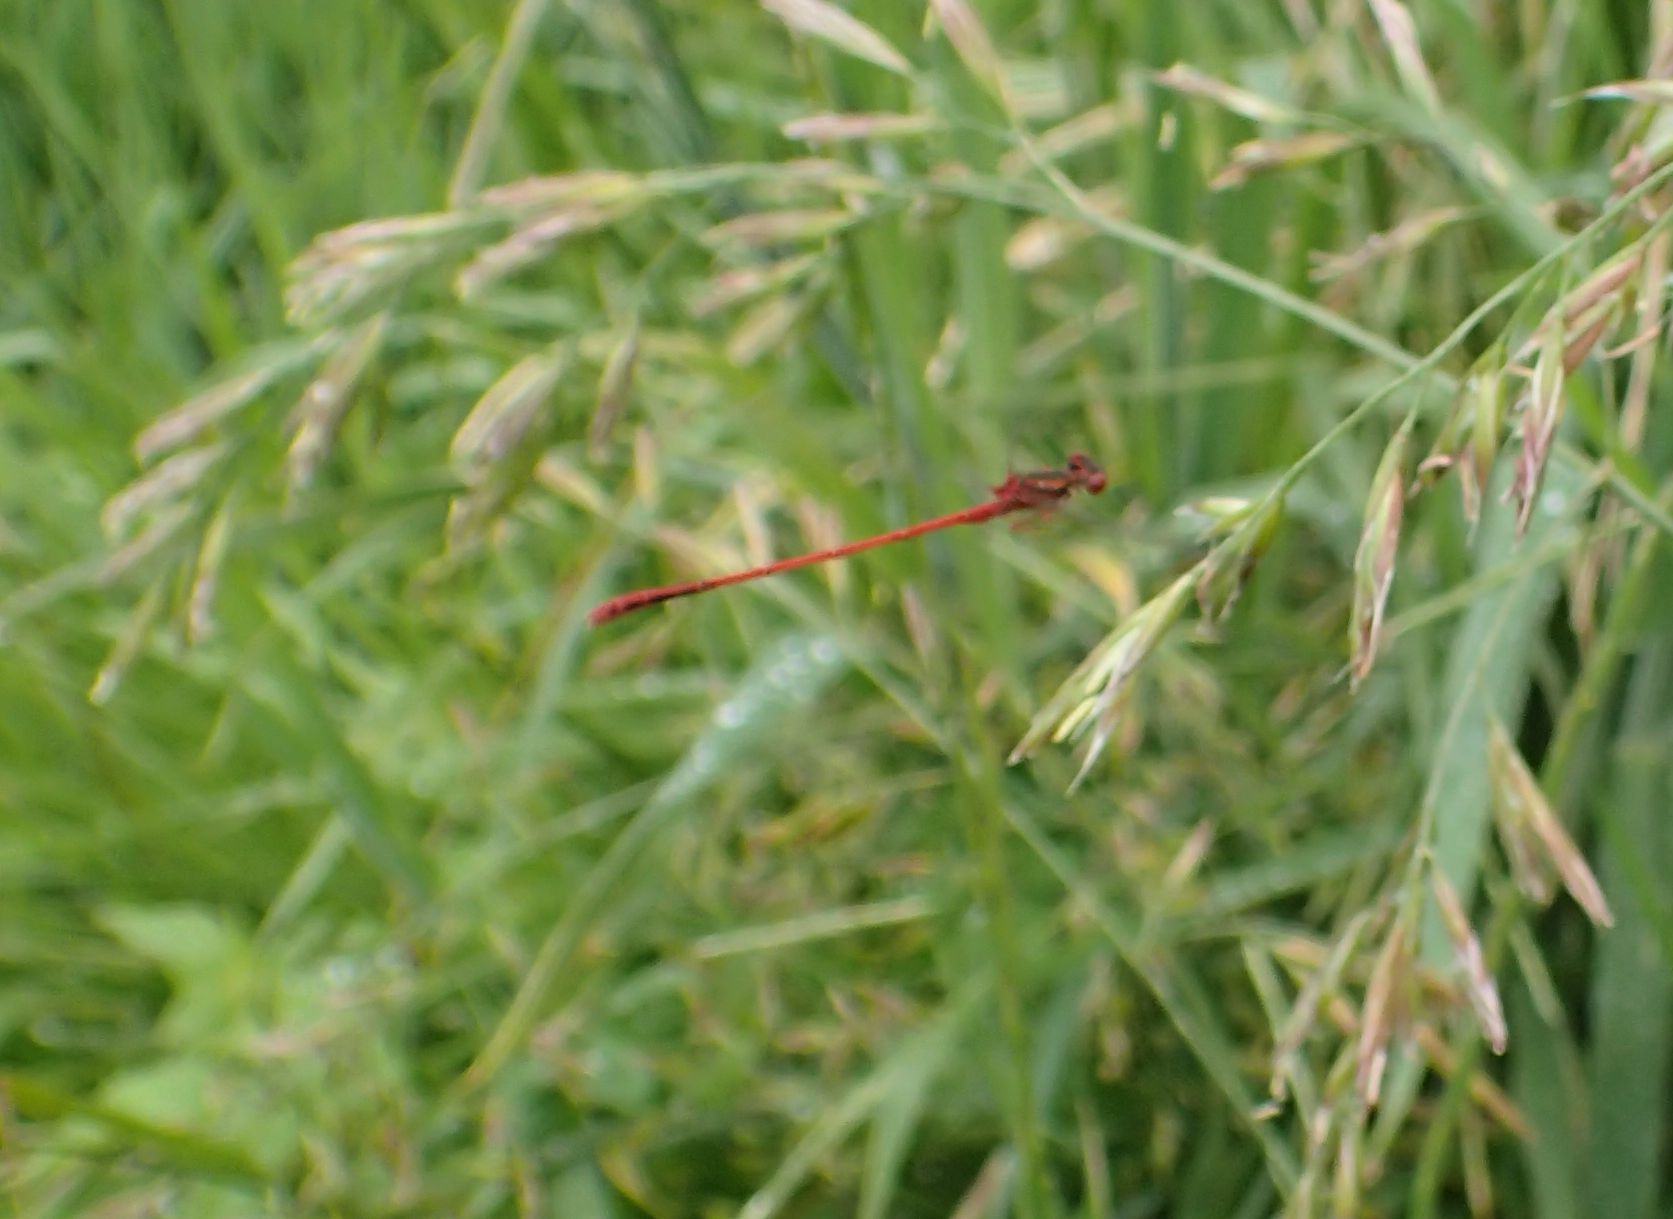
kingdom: Animalia
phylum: Arthropoda
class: Insecta
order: Odonata
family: Coenagrionidae
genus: Xanthocnemis
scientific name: Xanthocnemis zealandica
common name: Common redcoat damselfly
